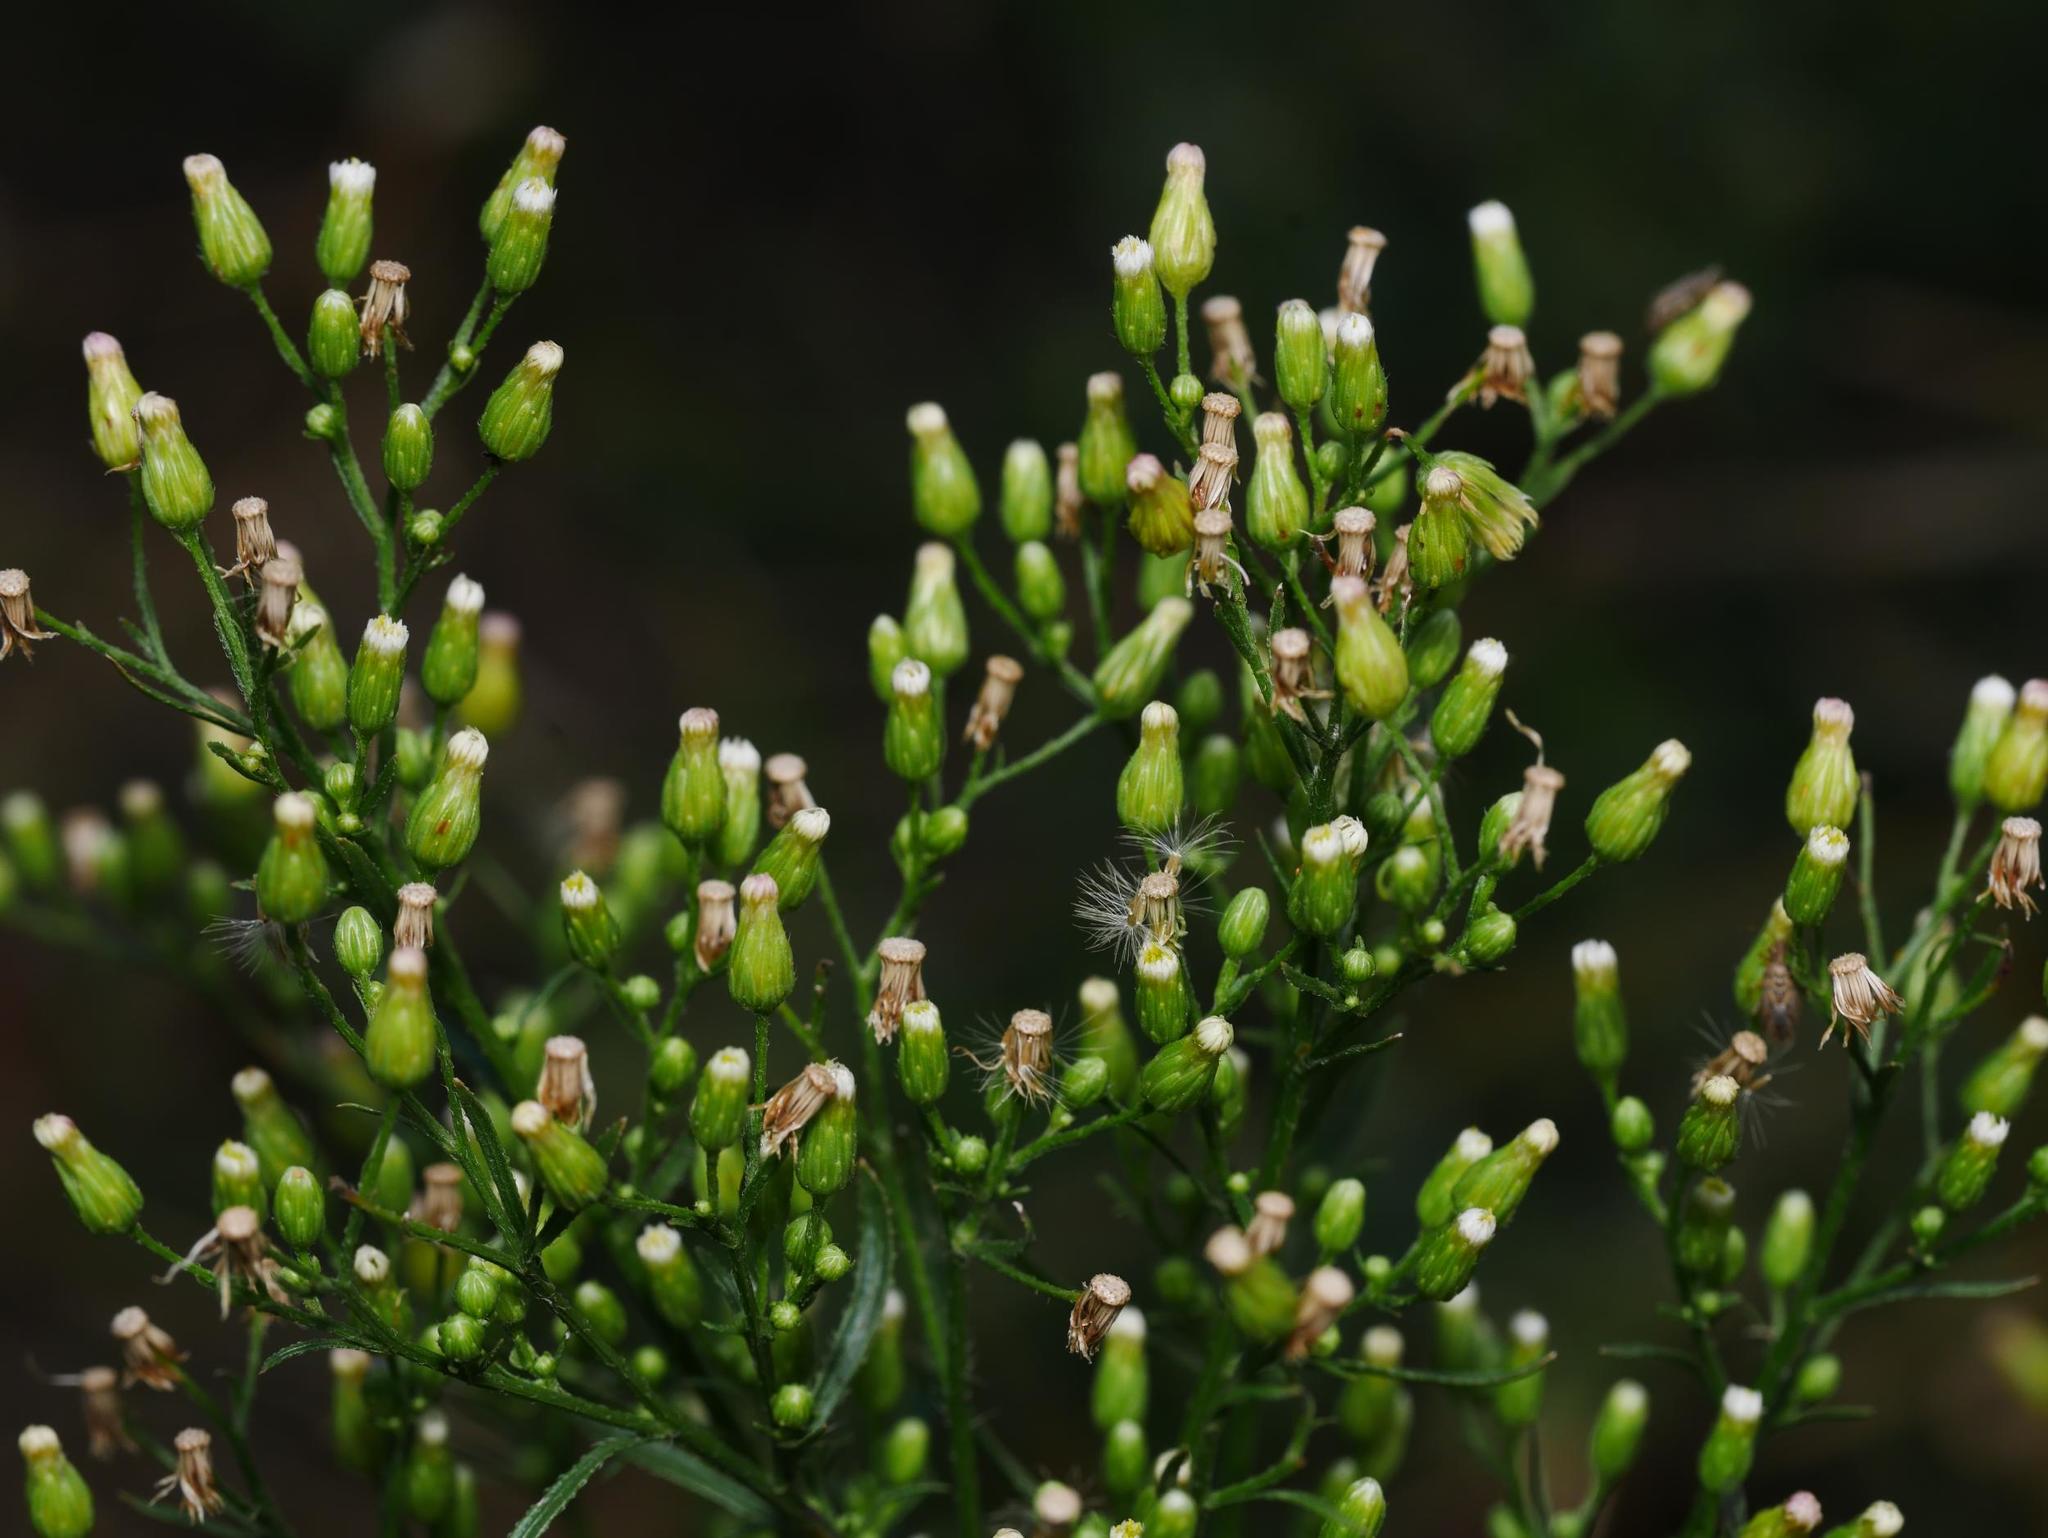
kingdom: Plantae
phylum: Tracheophyta
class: Magnoliopsida
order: Asterales
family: Asteraceae
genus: Erigeron
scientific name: Erigeron canadensis
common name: Canadian fleabane
